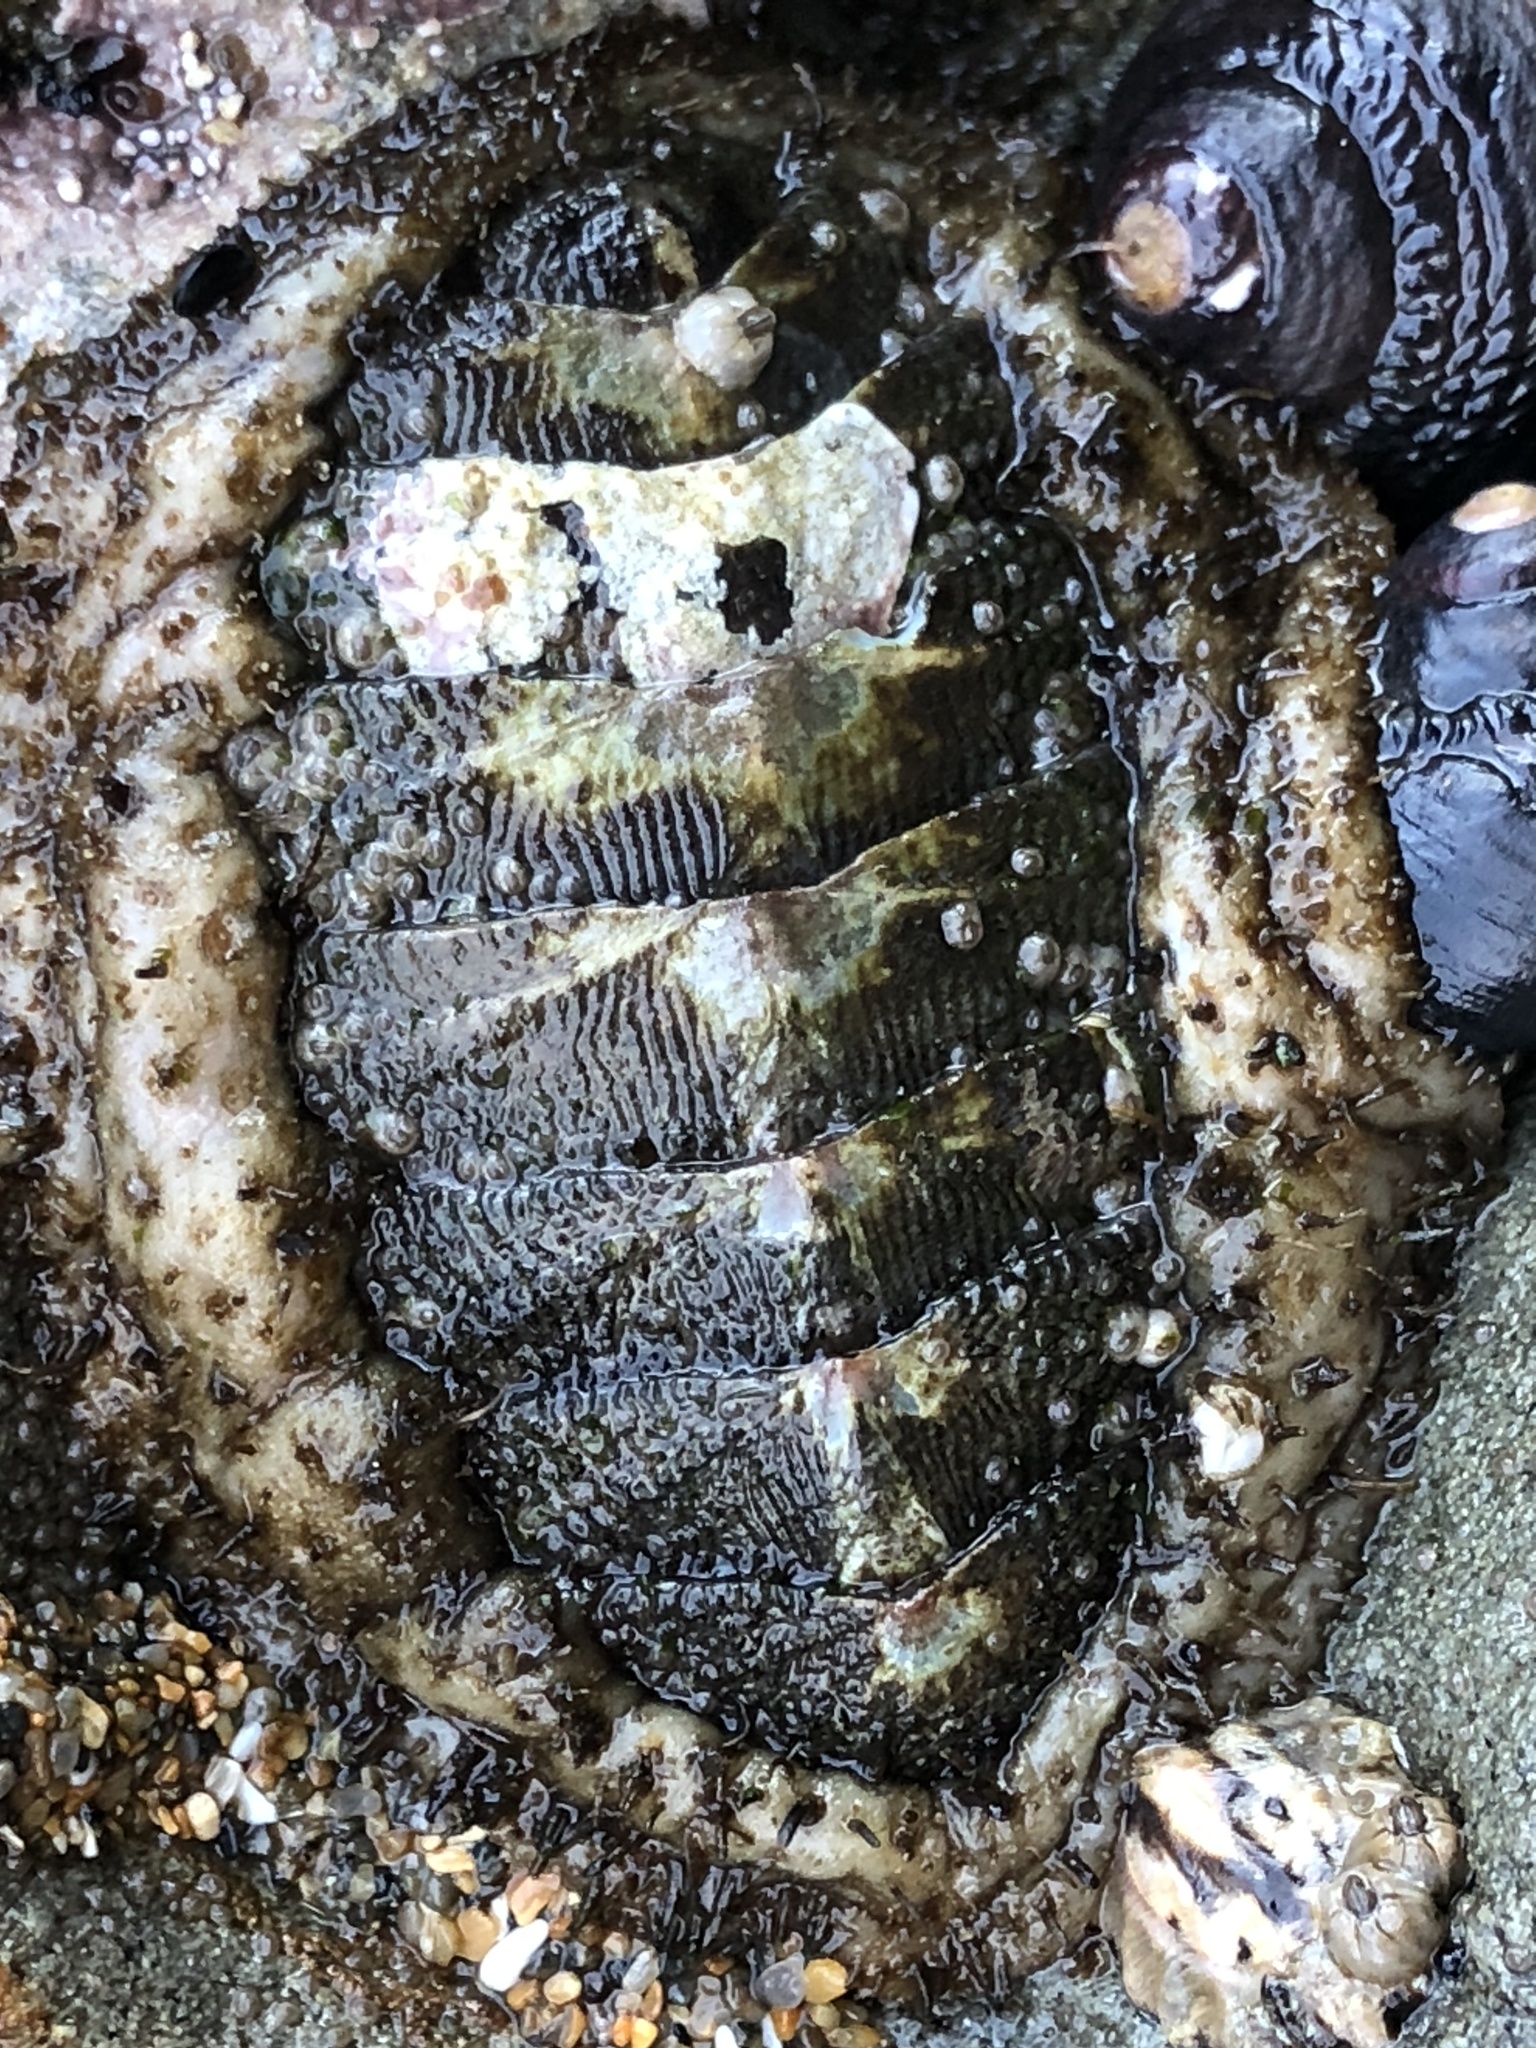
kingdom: Animalia
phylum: Mollusca
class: Polyplacophora
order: Chitonida
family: Mopaliidae
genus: Mopalia
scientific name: Mopalia muscosa
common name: Mossy chiton
